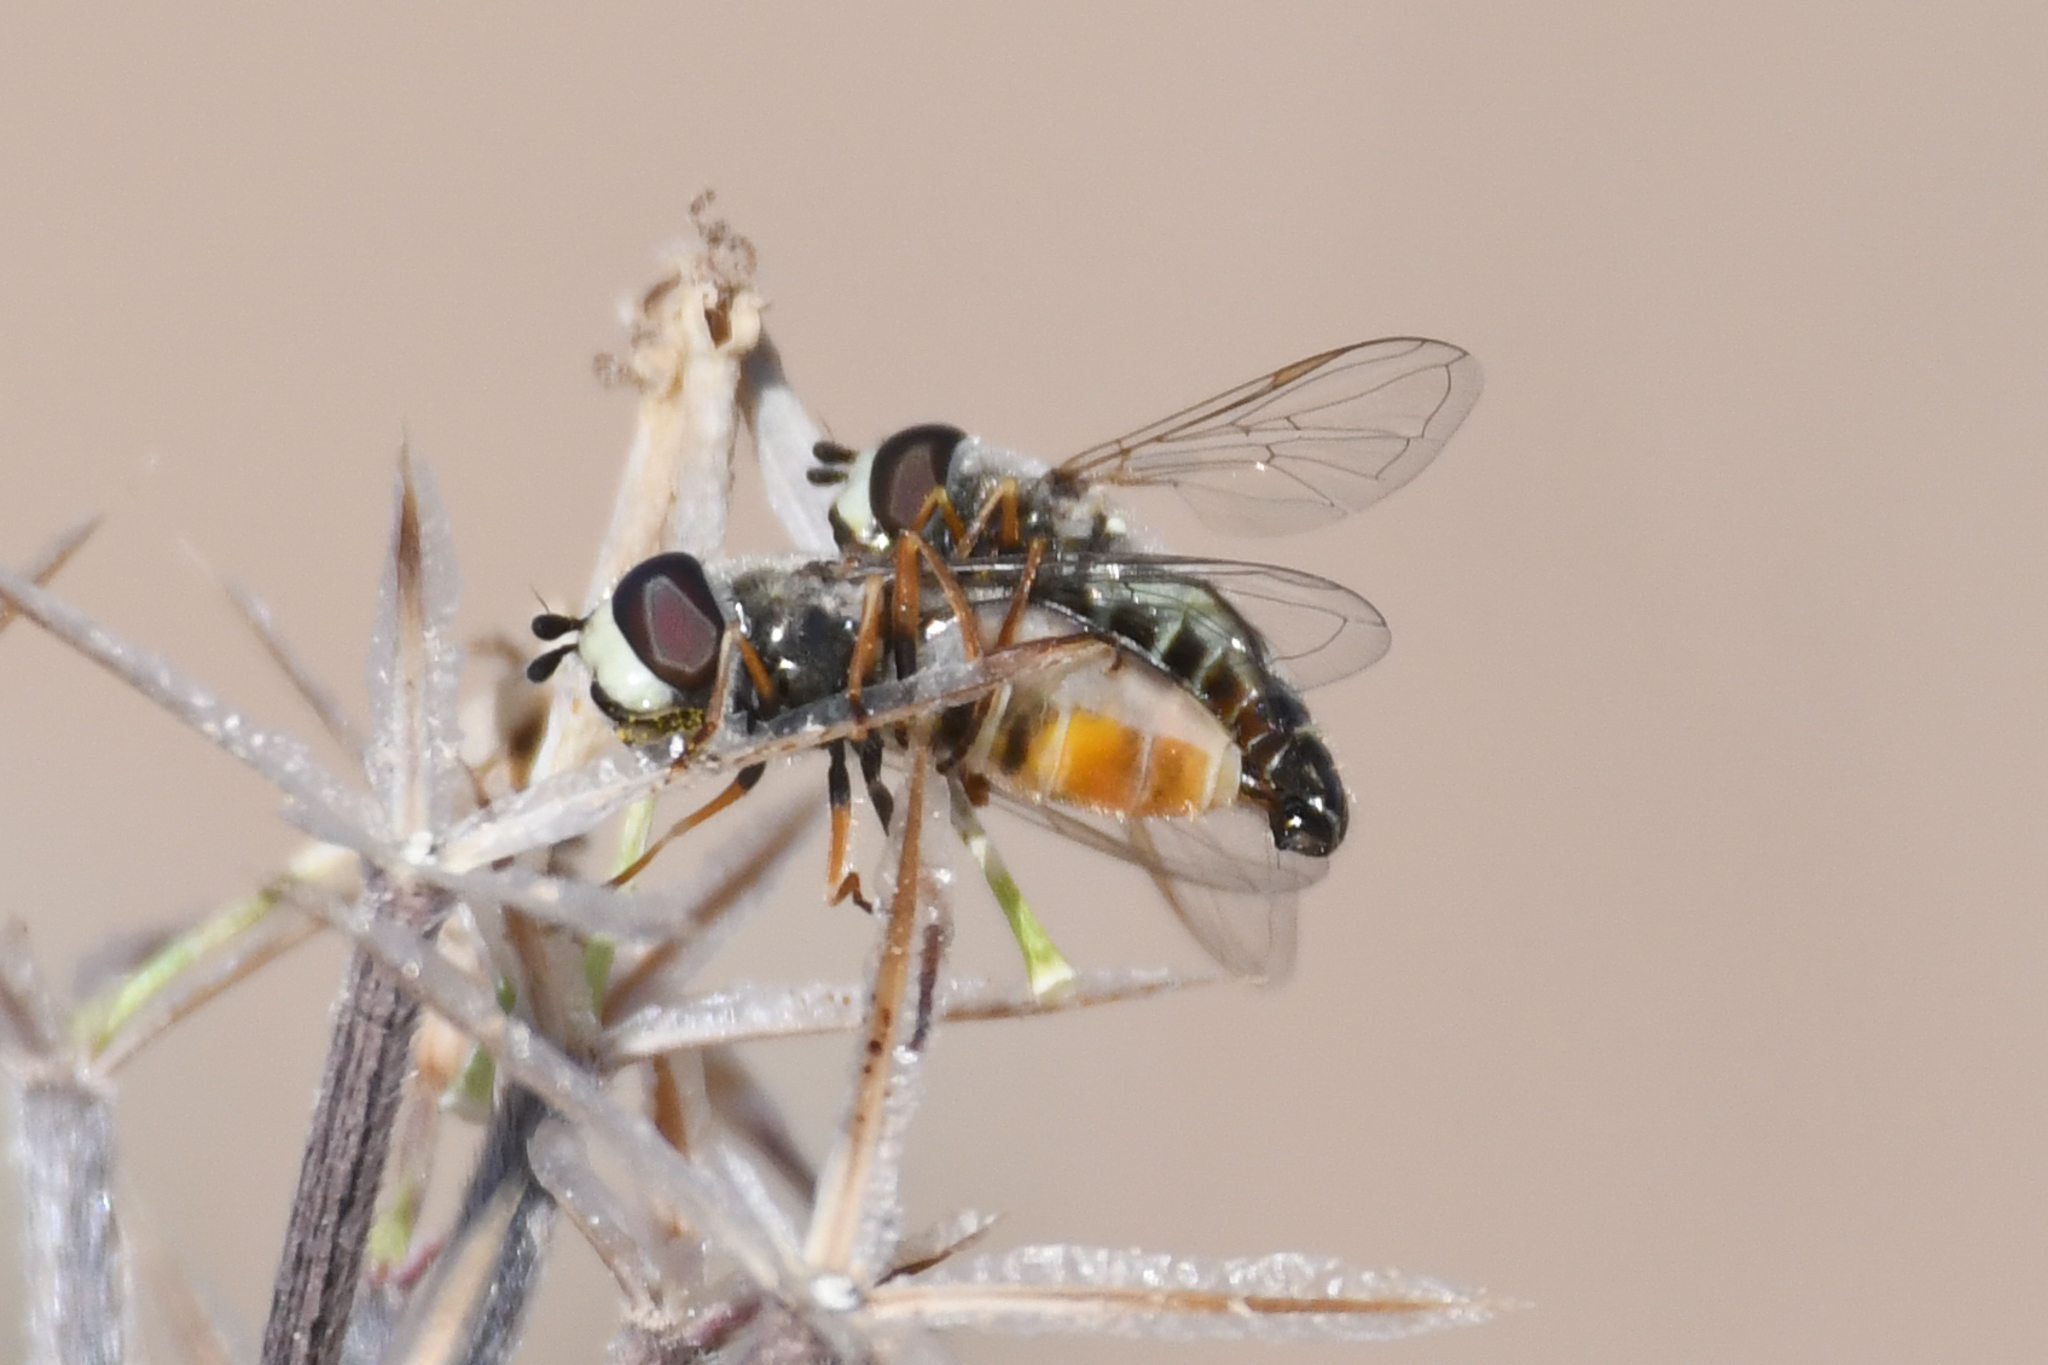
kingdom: Animalia
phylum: Arthropoda
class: Insecta
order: Diptera
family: Syrphidae
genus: Eupeodes
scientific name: Eupeodes volucris
